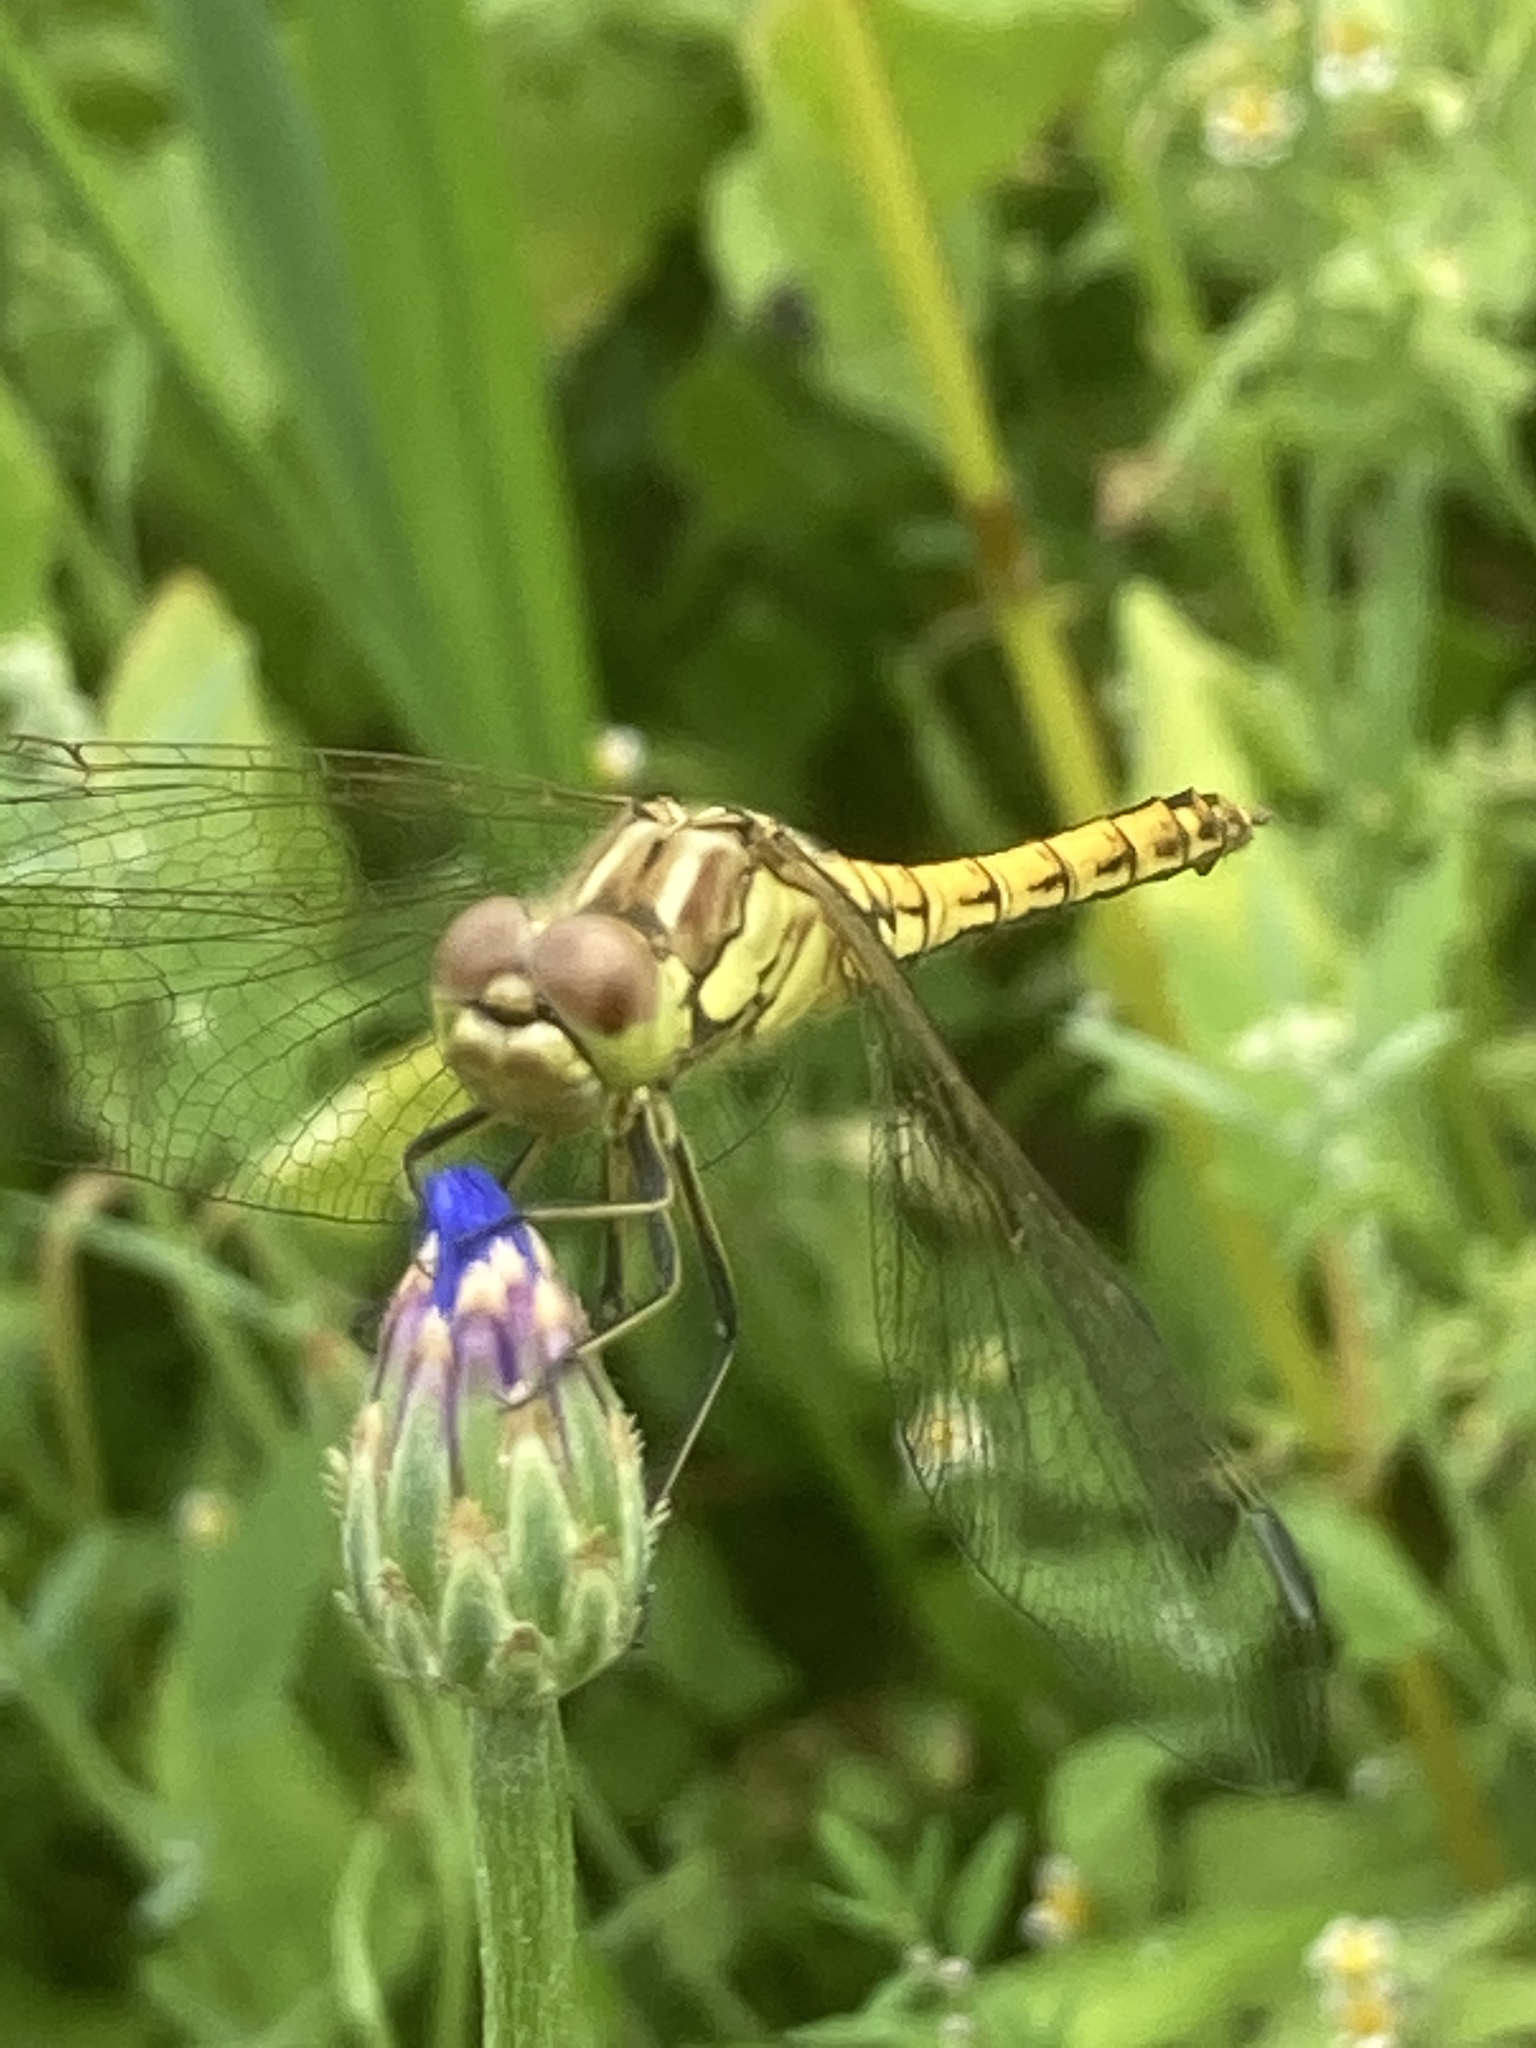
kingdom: Animalia
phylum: Arthropoda
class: Insecta
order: Odonata
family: Libellulidae
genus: Sympetrum
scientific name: Sympetrum vulgatum
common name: Vagrant darter
